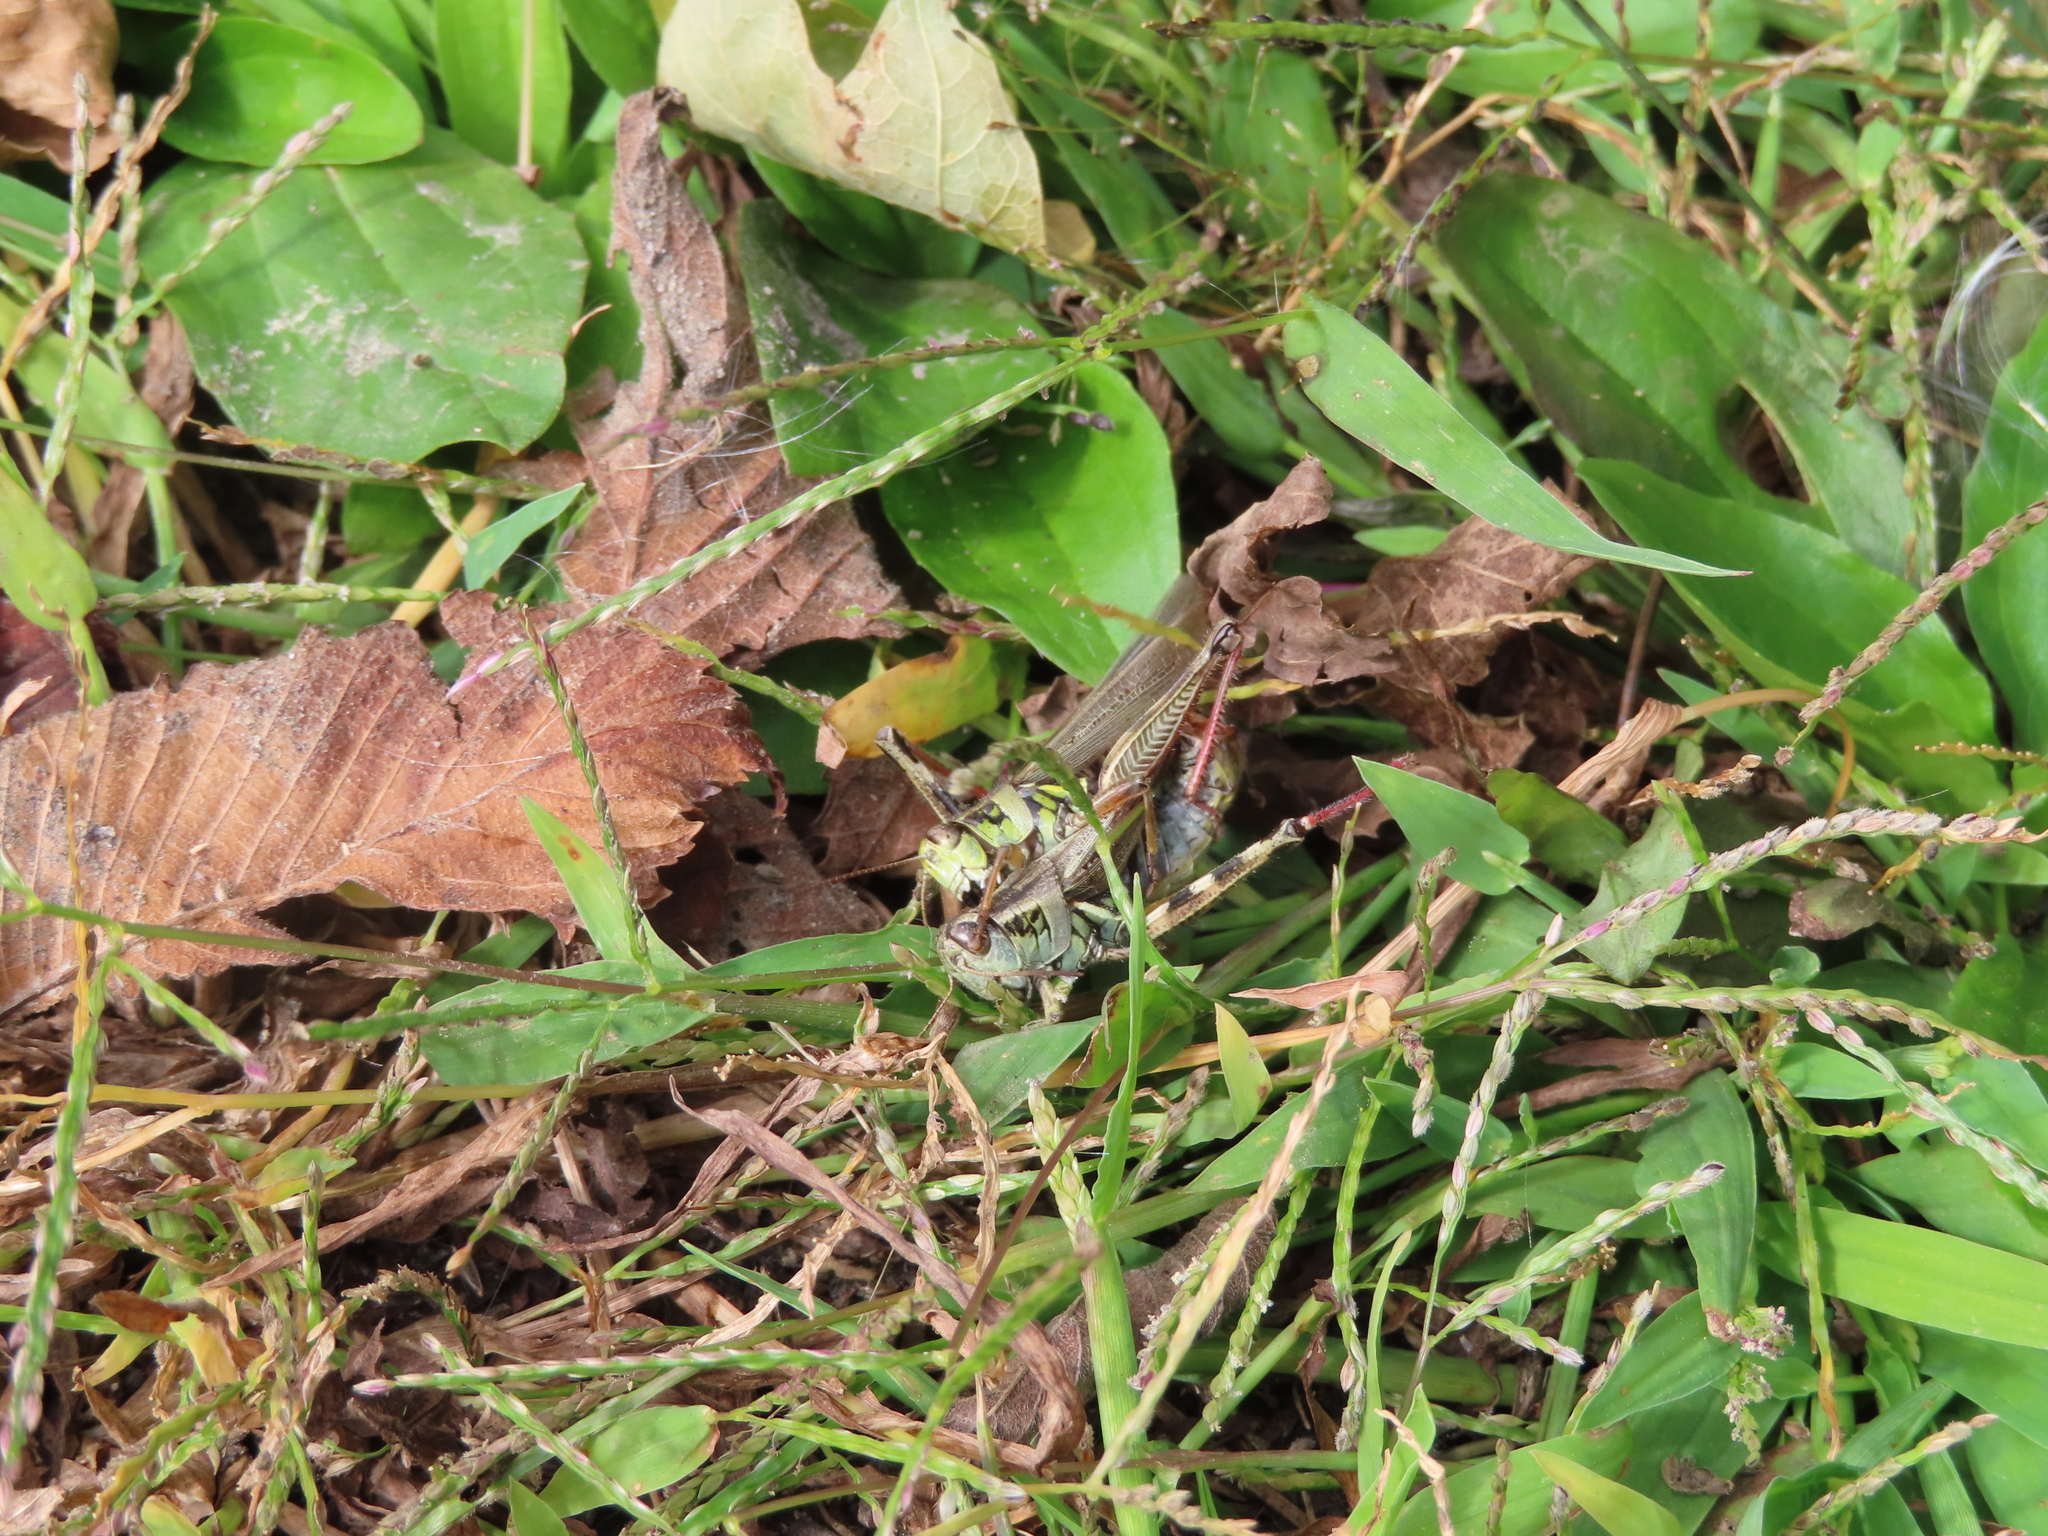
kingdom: Animalia
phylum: Arthropoda
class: Insecta
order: Orthoptera
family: Acrididae
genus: Melanoplus
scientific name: Melanoplus femurrubrum
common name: Red-legged grasshopper
